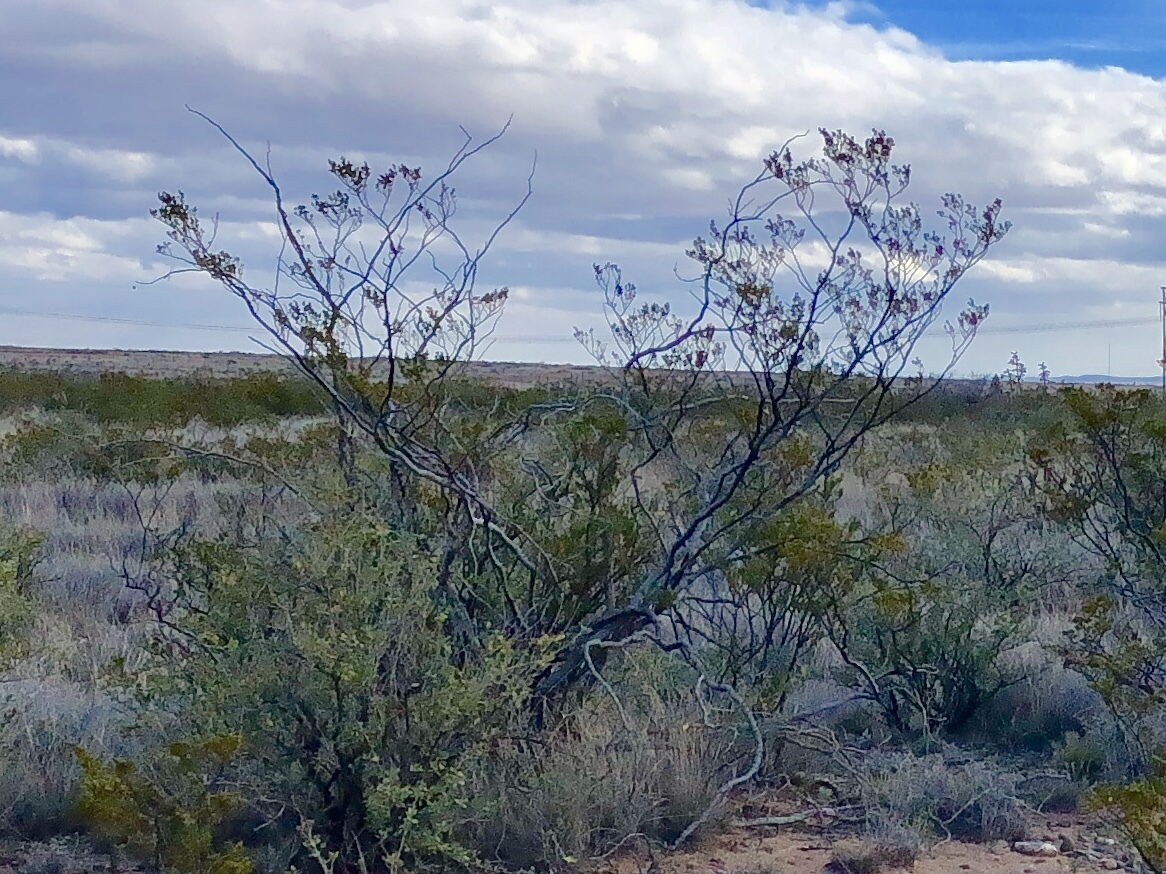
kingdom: Plantae
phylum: Tracheophyta
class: Magnoliopsida
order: Zygophyllales
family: Zygophyllaceae
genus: Larrea
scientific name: Larrea tridentata
